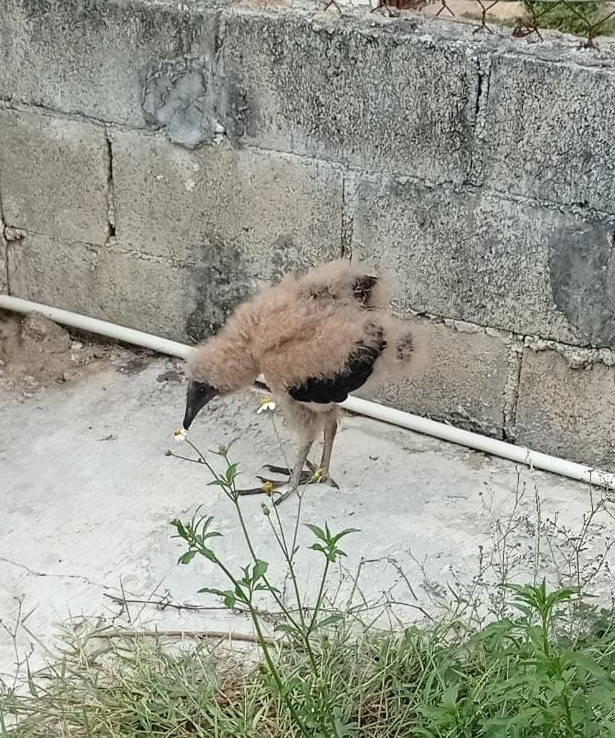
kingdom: Animalia
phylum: Chordata
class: Aves
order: Accipitriformes
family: Cathartidae
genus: Coragyps
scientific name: Coragyps atratus
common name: Black vulture
